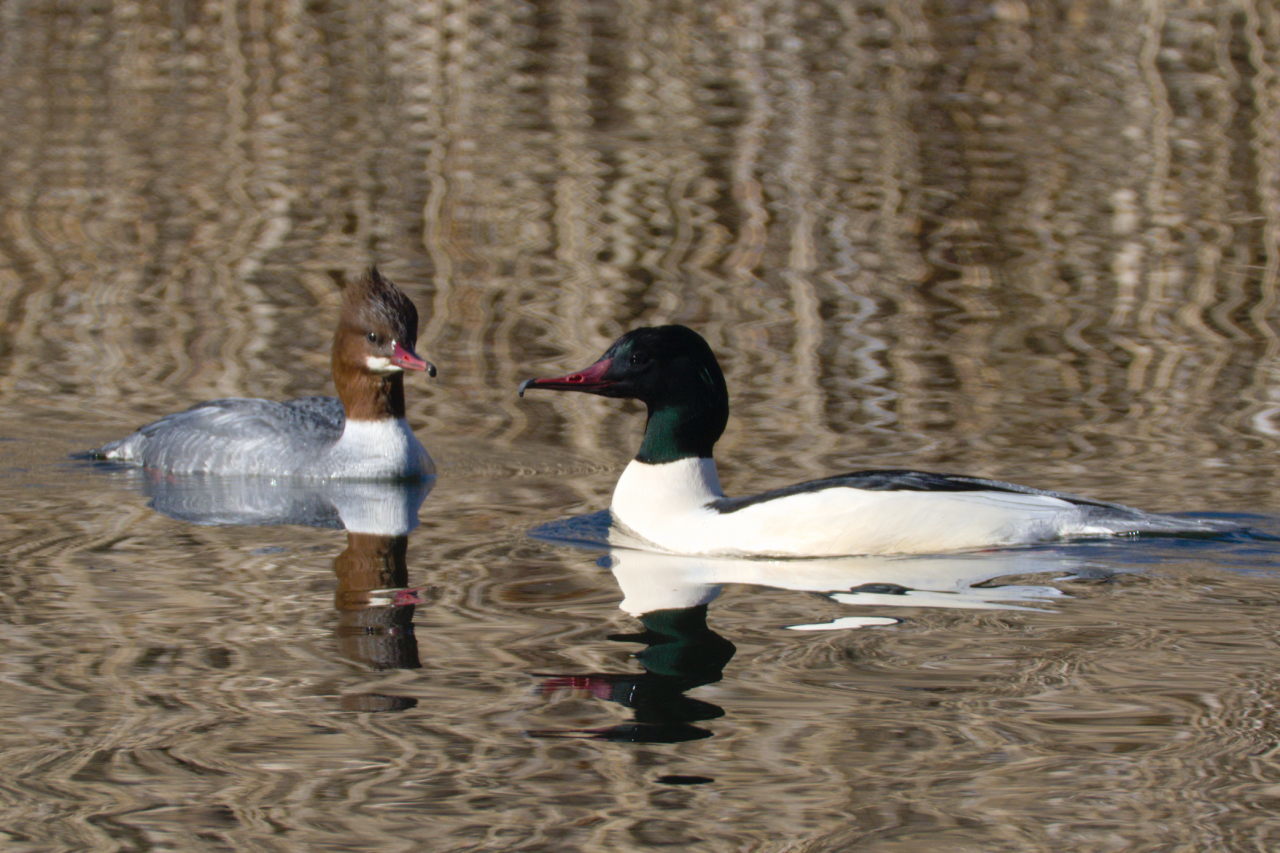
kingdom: Animalia
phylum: Chordata
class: Aves
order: Anseriformes
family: Anatidae
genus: Mergus
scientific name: Mergus merganser
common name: Common merganser
